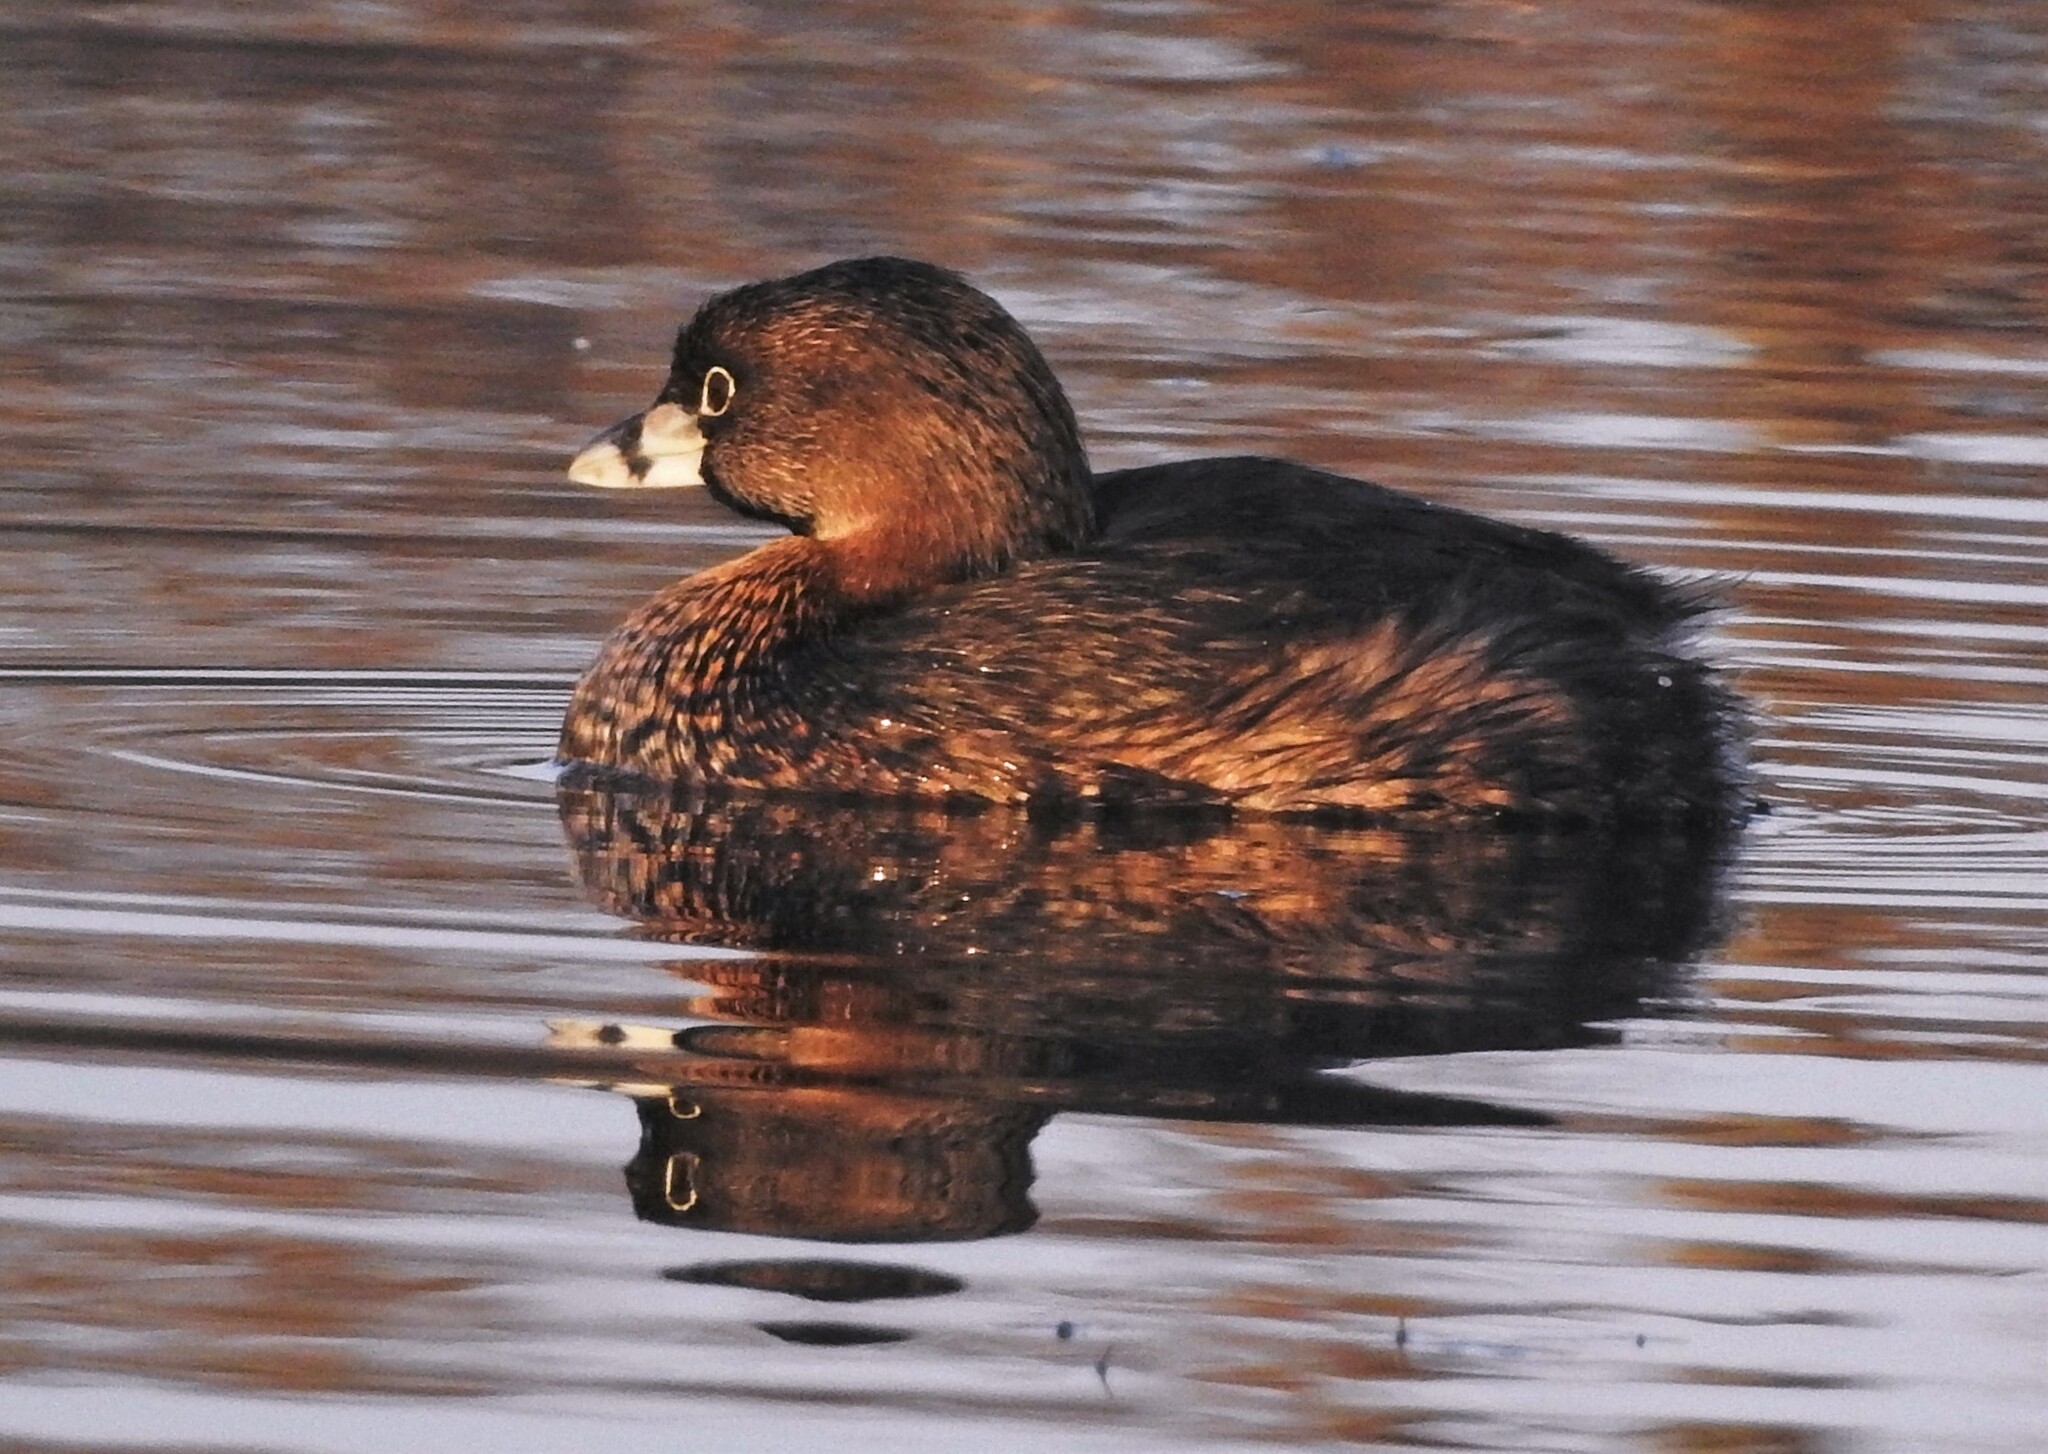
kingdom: Animalia
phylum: Chordata
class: Aves
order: Podicipediformes
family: Podicipedidae
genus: Podilymbus
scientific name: Podilymbus podiceps
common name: Pied-billed grebe
